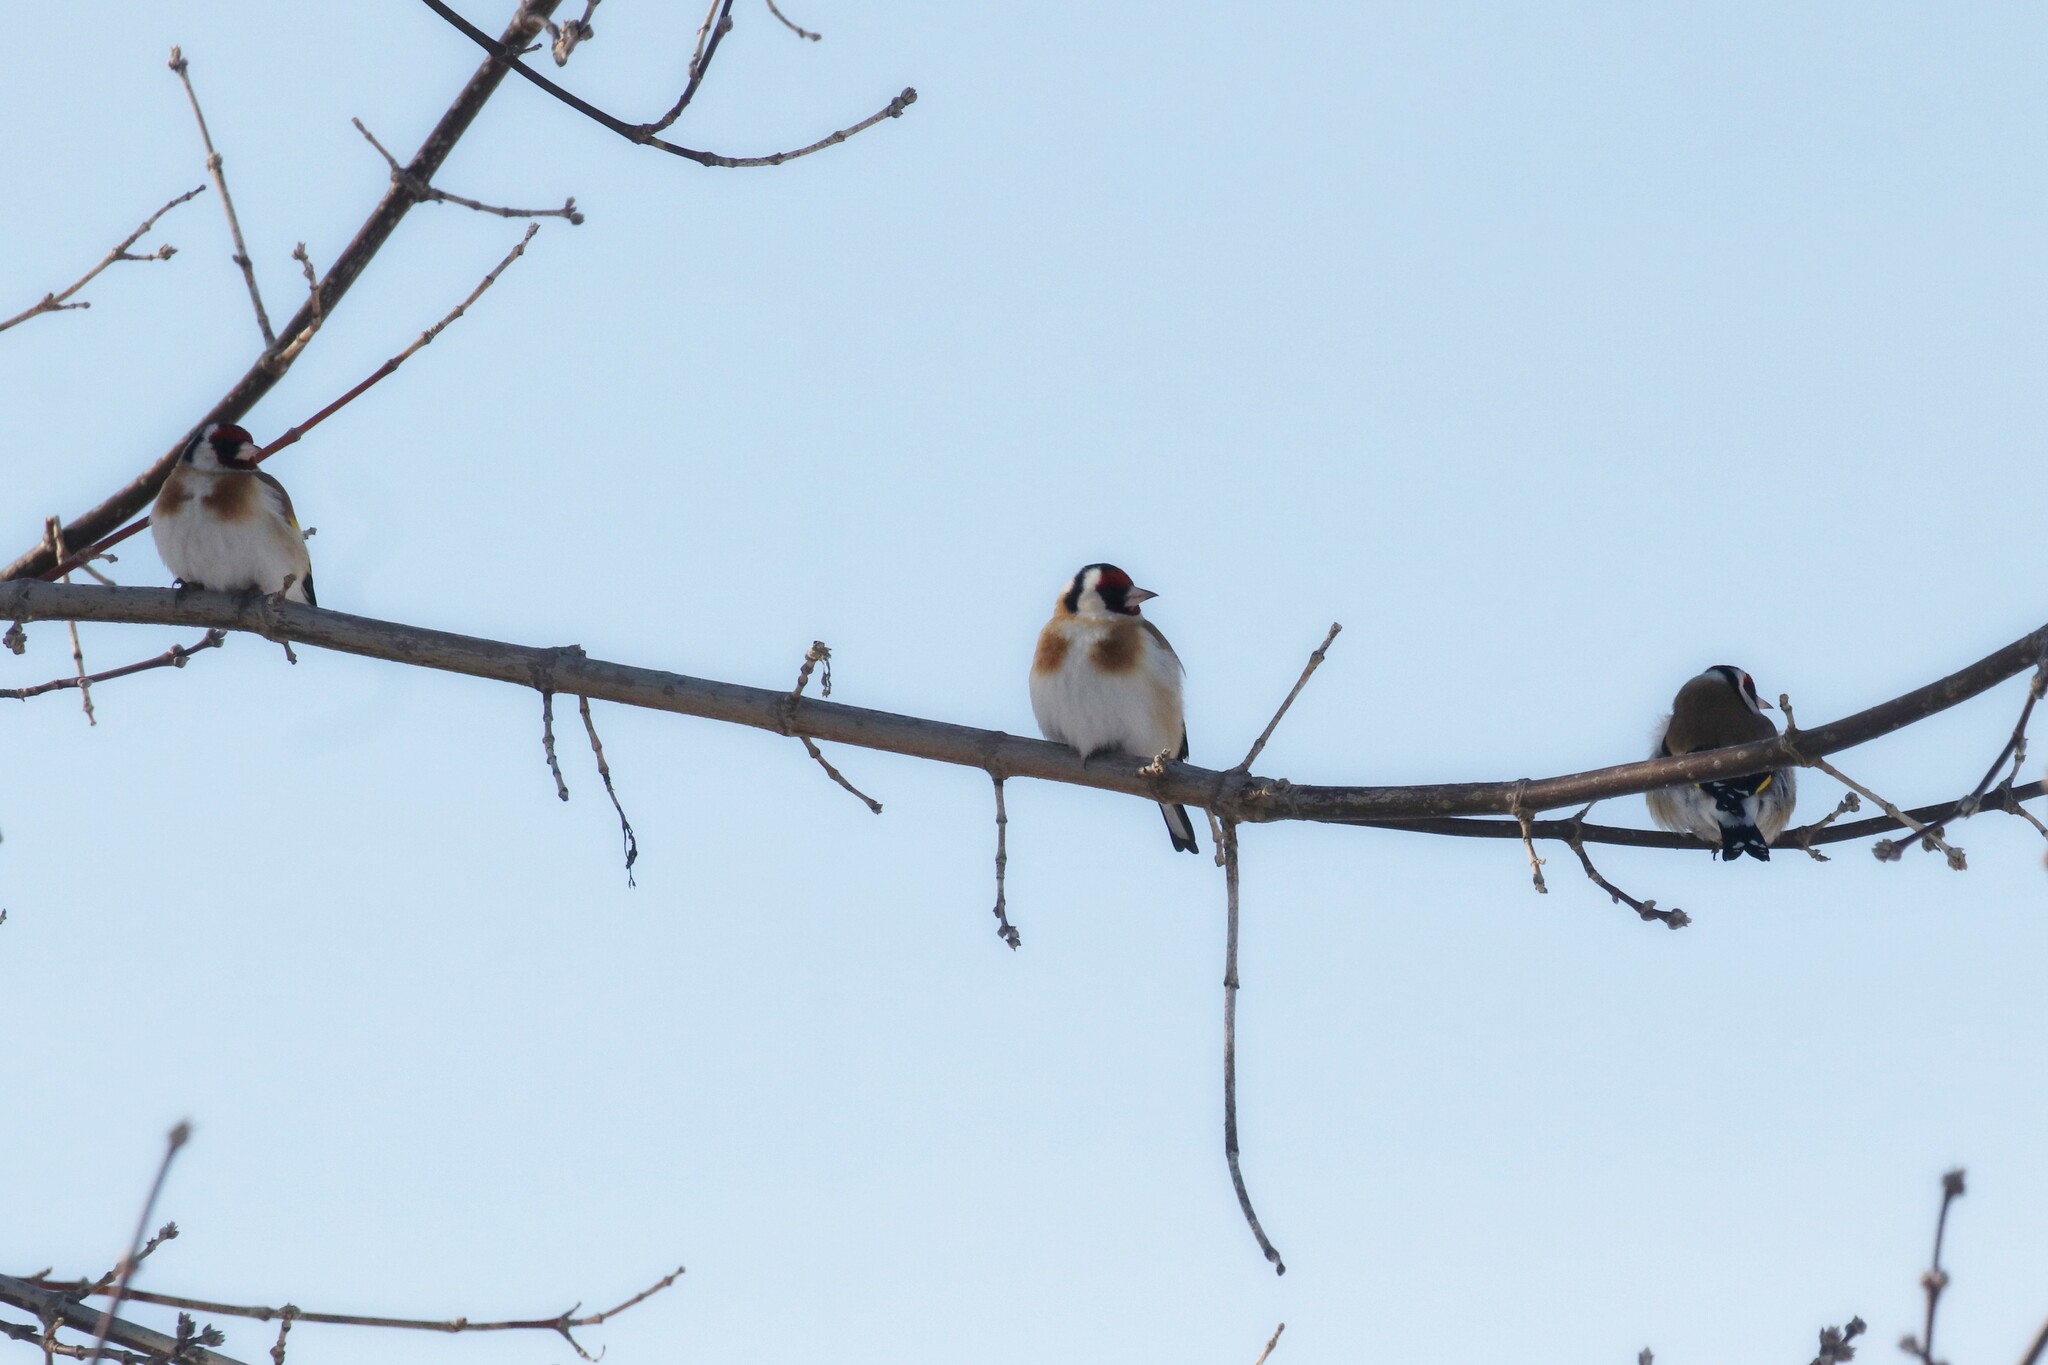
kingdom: Animalia
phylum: Chordata
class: Aves
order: Passeriformes
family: Fringillidae
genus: Carduelis
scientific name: Carduelis carduelis
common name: European goldfinch
